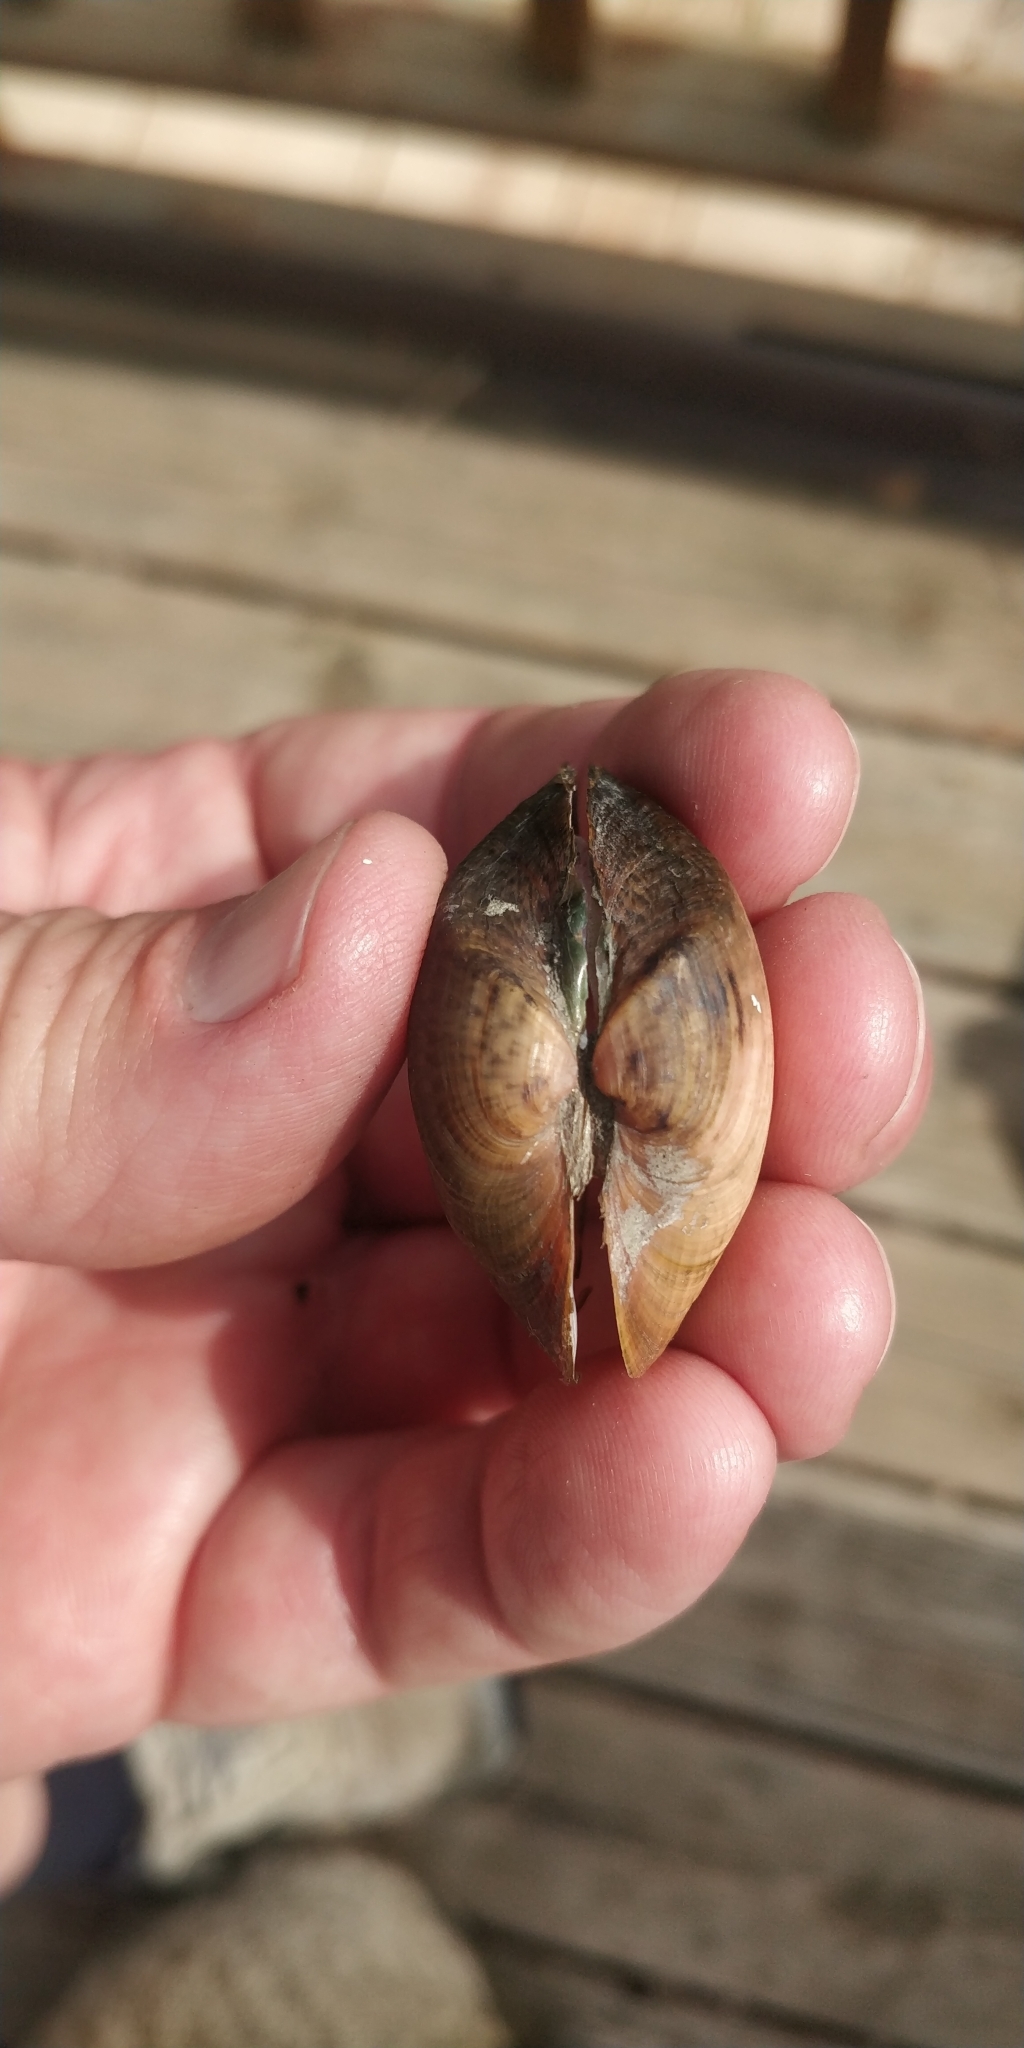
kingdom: Animalia
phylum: Mollusca
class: Bivalvia
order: Unionida
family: Unionidae
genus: Truncilla
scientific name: Truncilla truncata
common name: Deertoe
